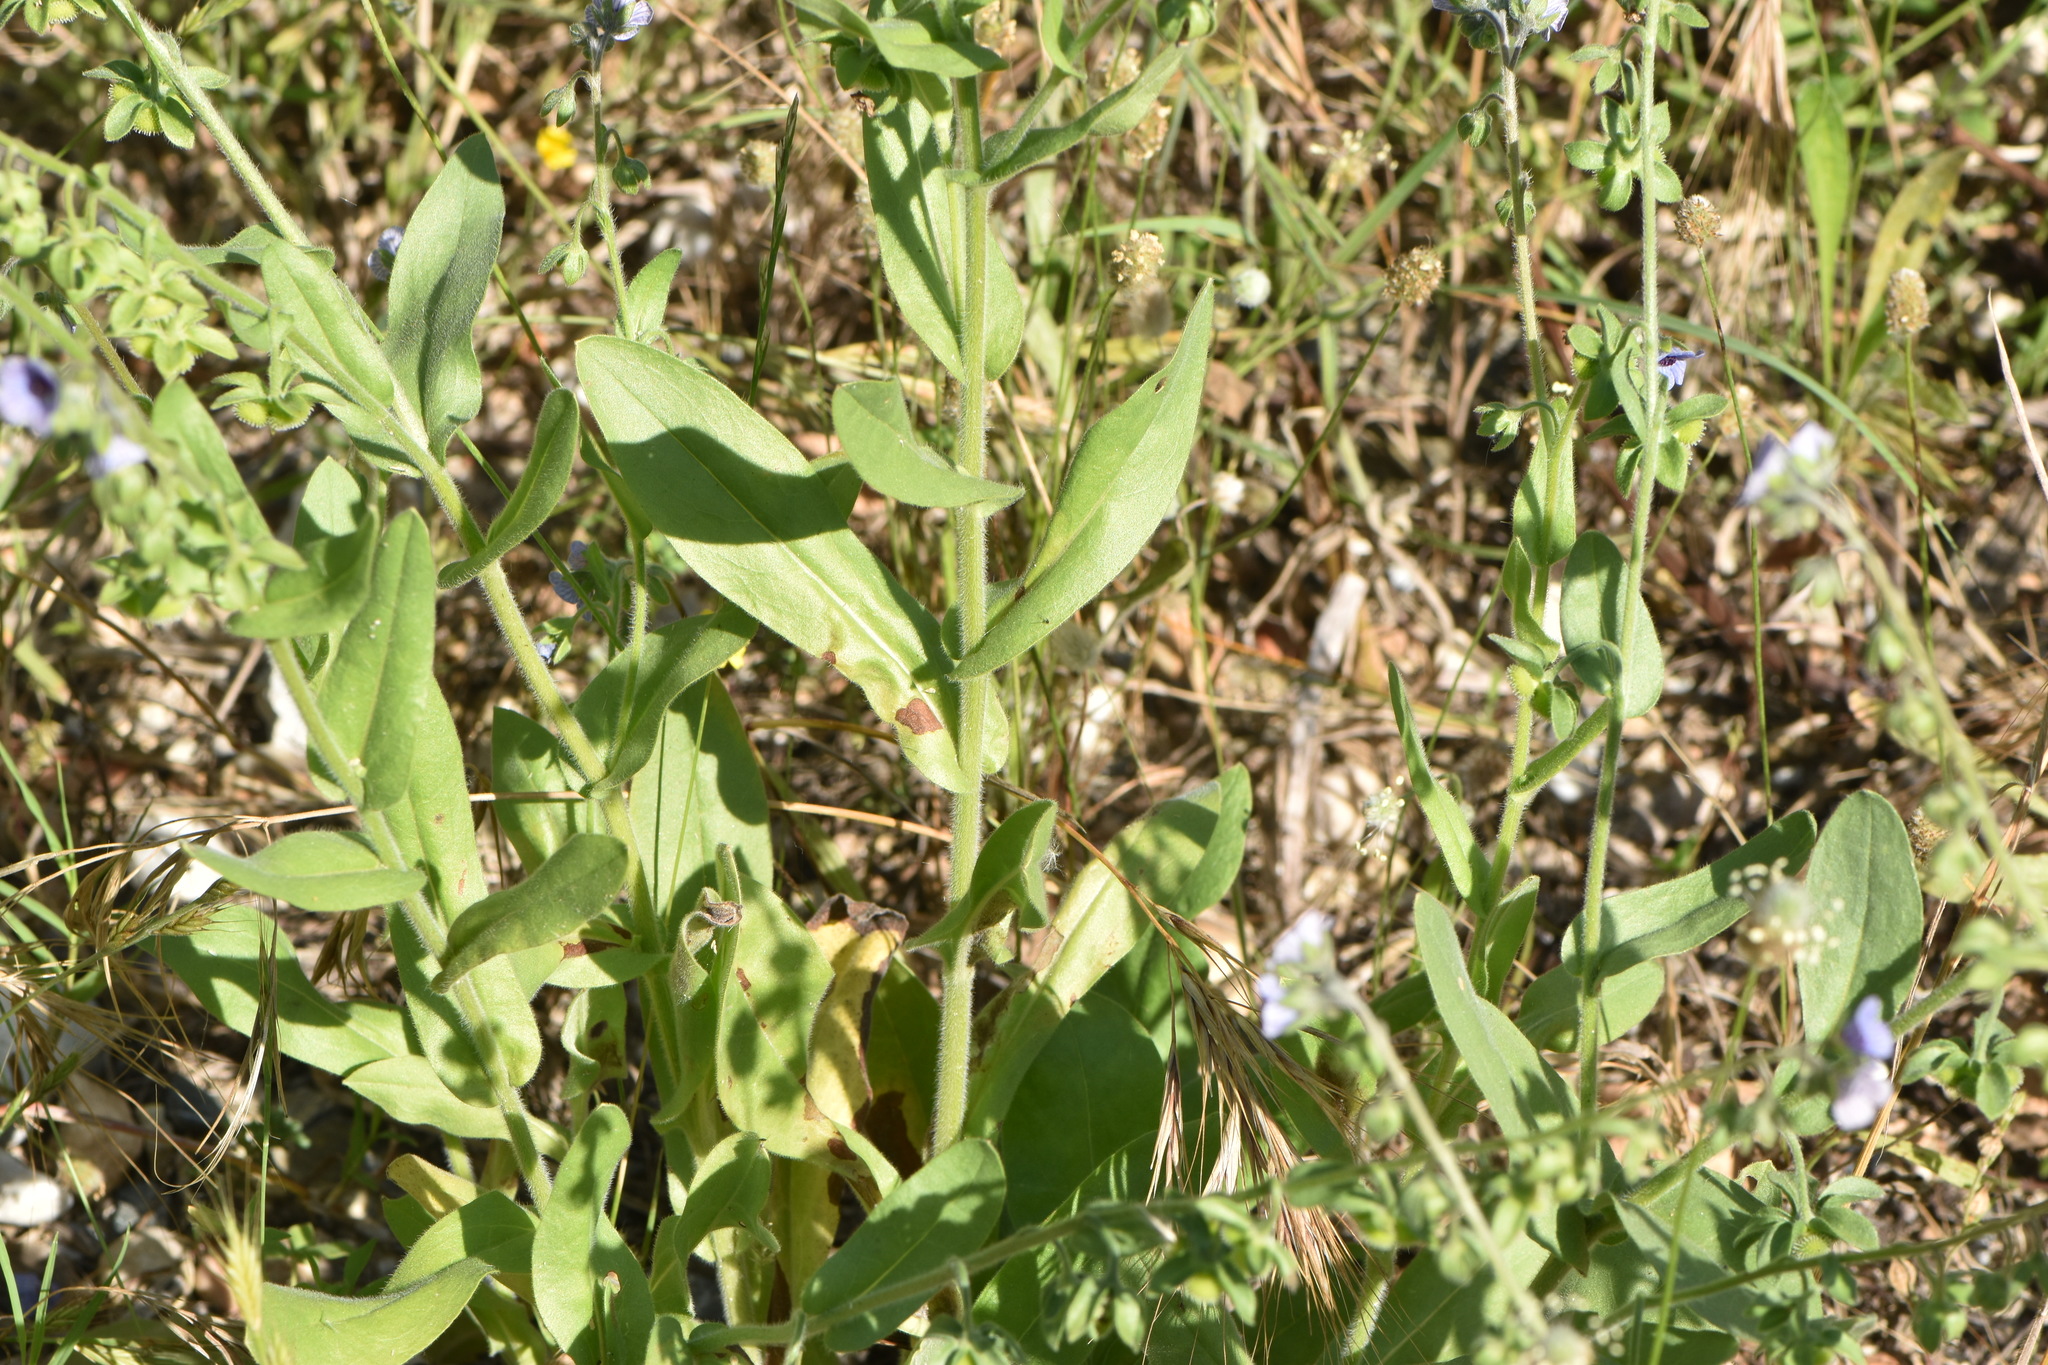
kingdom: Plantae
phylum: Tracheophyta
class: Magnoliopsida
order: Boraginales
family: Boraginaceae
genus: Cynoglossum
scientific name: Cynoglossum creticum
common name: Blue hound's tongue
